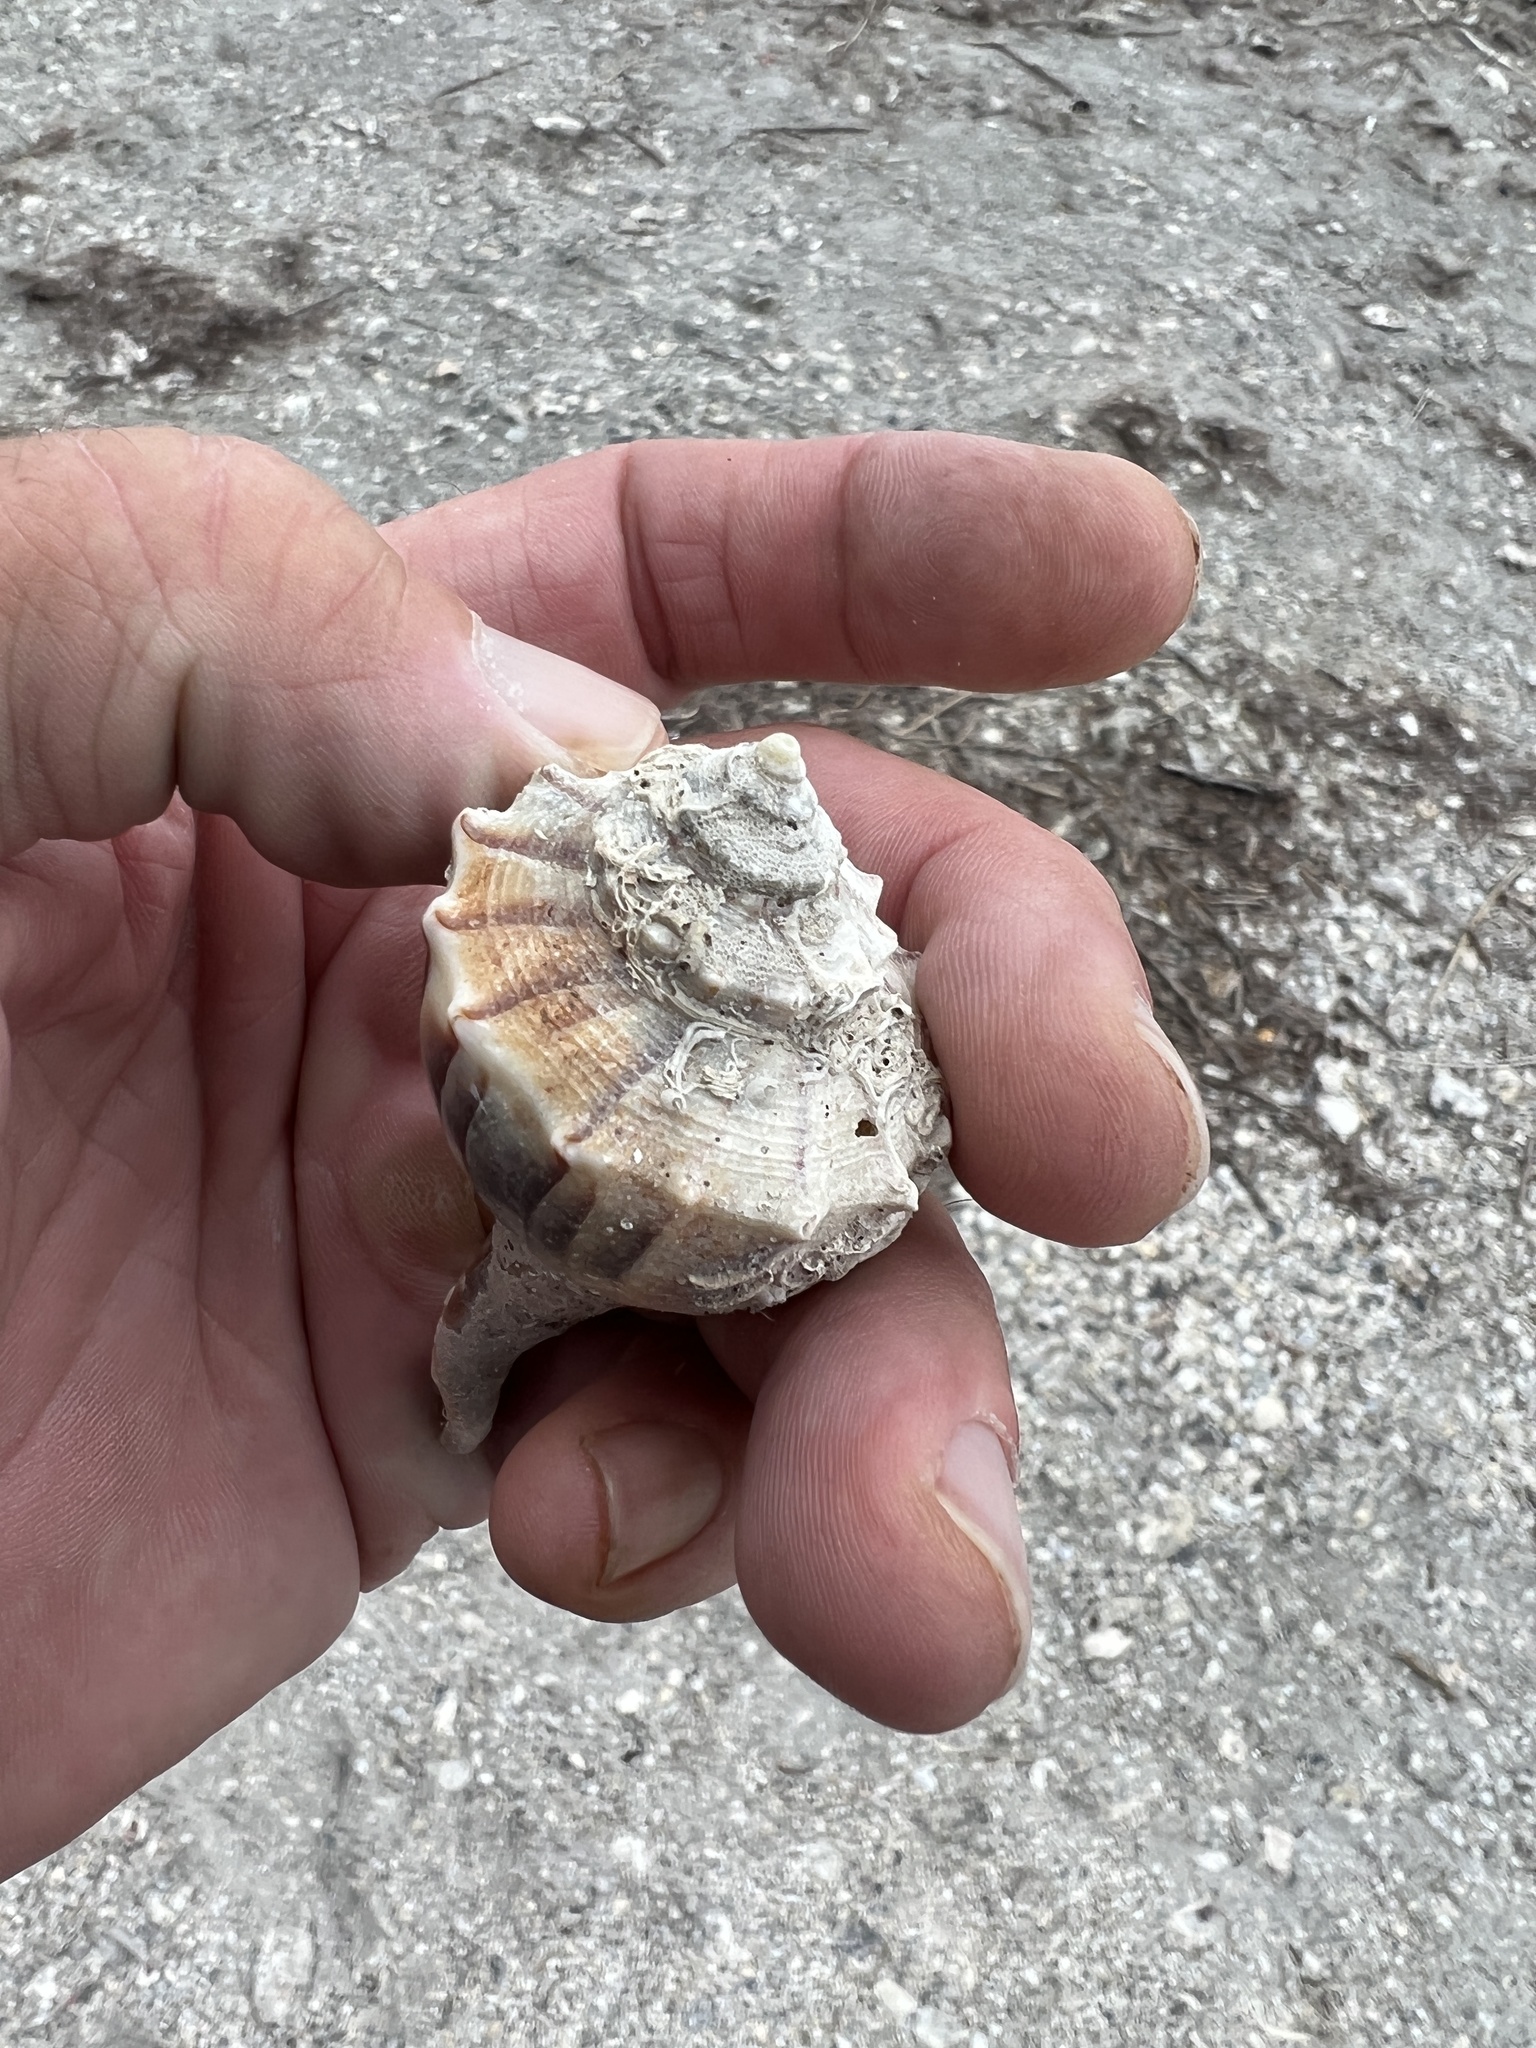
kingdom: Animalia
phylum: Mollusca
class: Gastropoda
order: Neogastropoda
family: Busyconidae
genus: Sinistrofulgur
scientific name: Sinistrofulgur pulleyi
